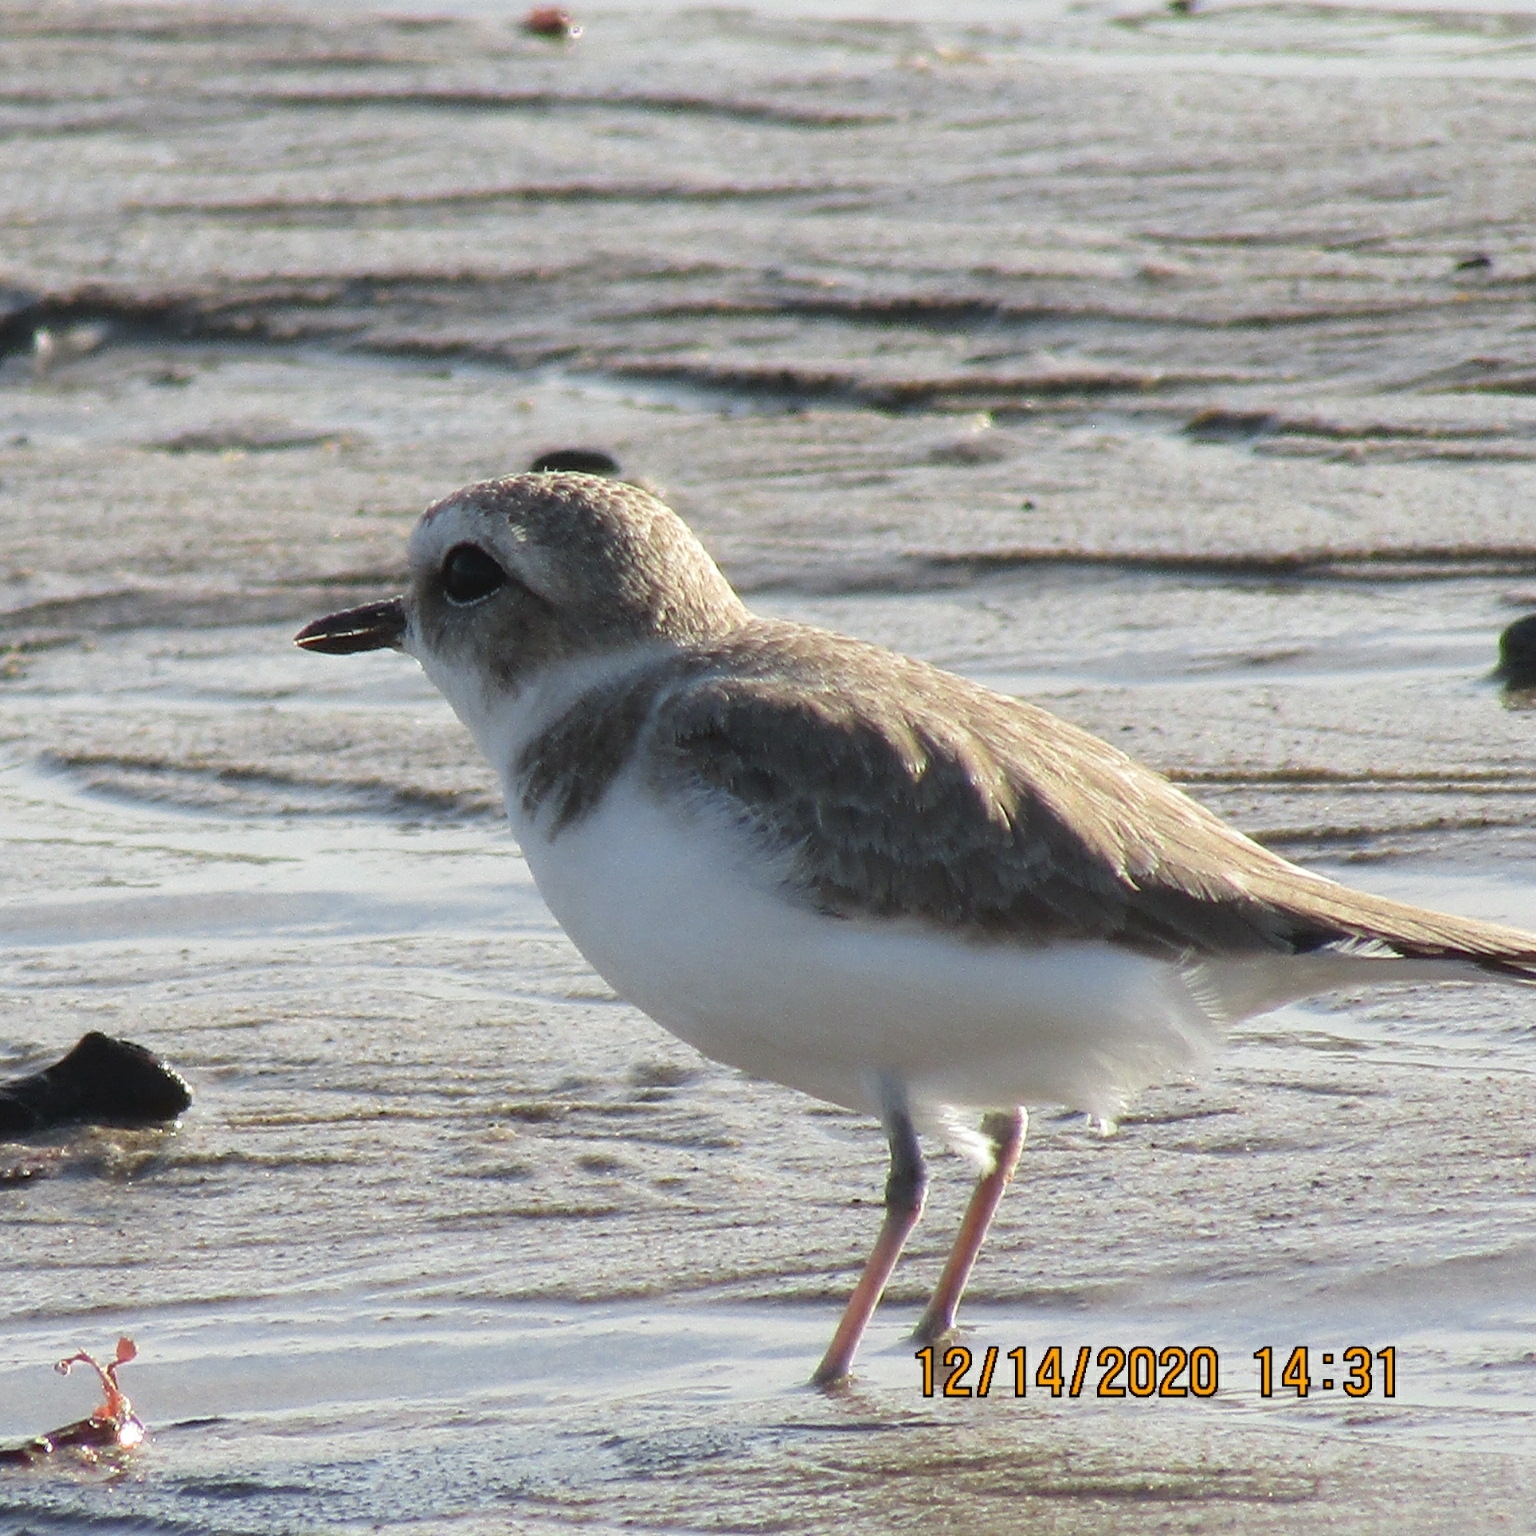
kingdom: Animalia
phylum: Chordata
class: Aves
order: Charadriiformes
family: Charadriidae
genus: Anarhynchus
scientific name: Anarhynchus
